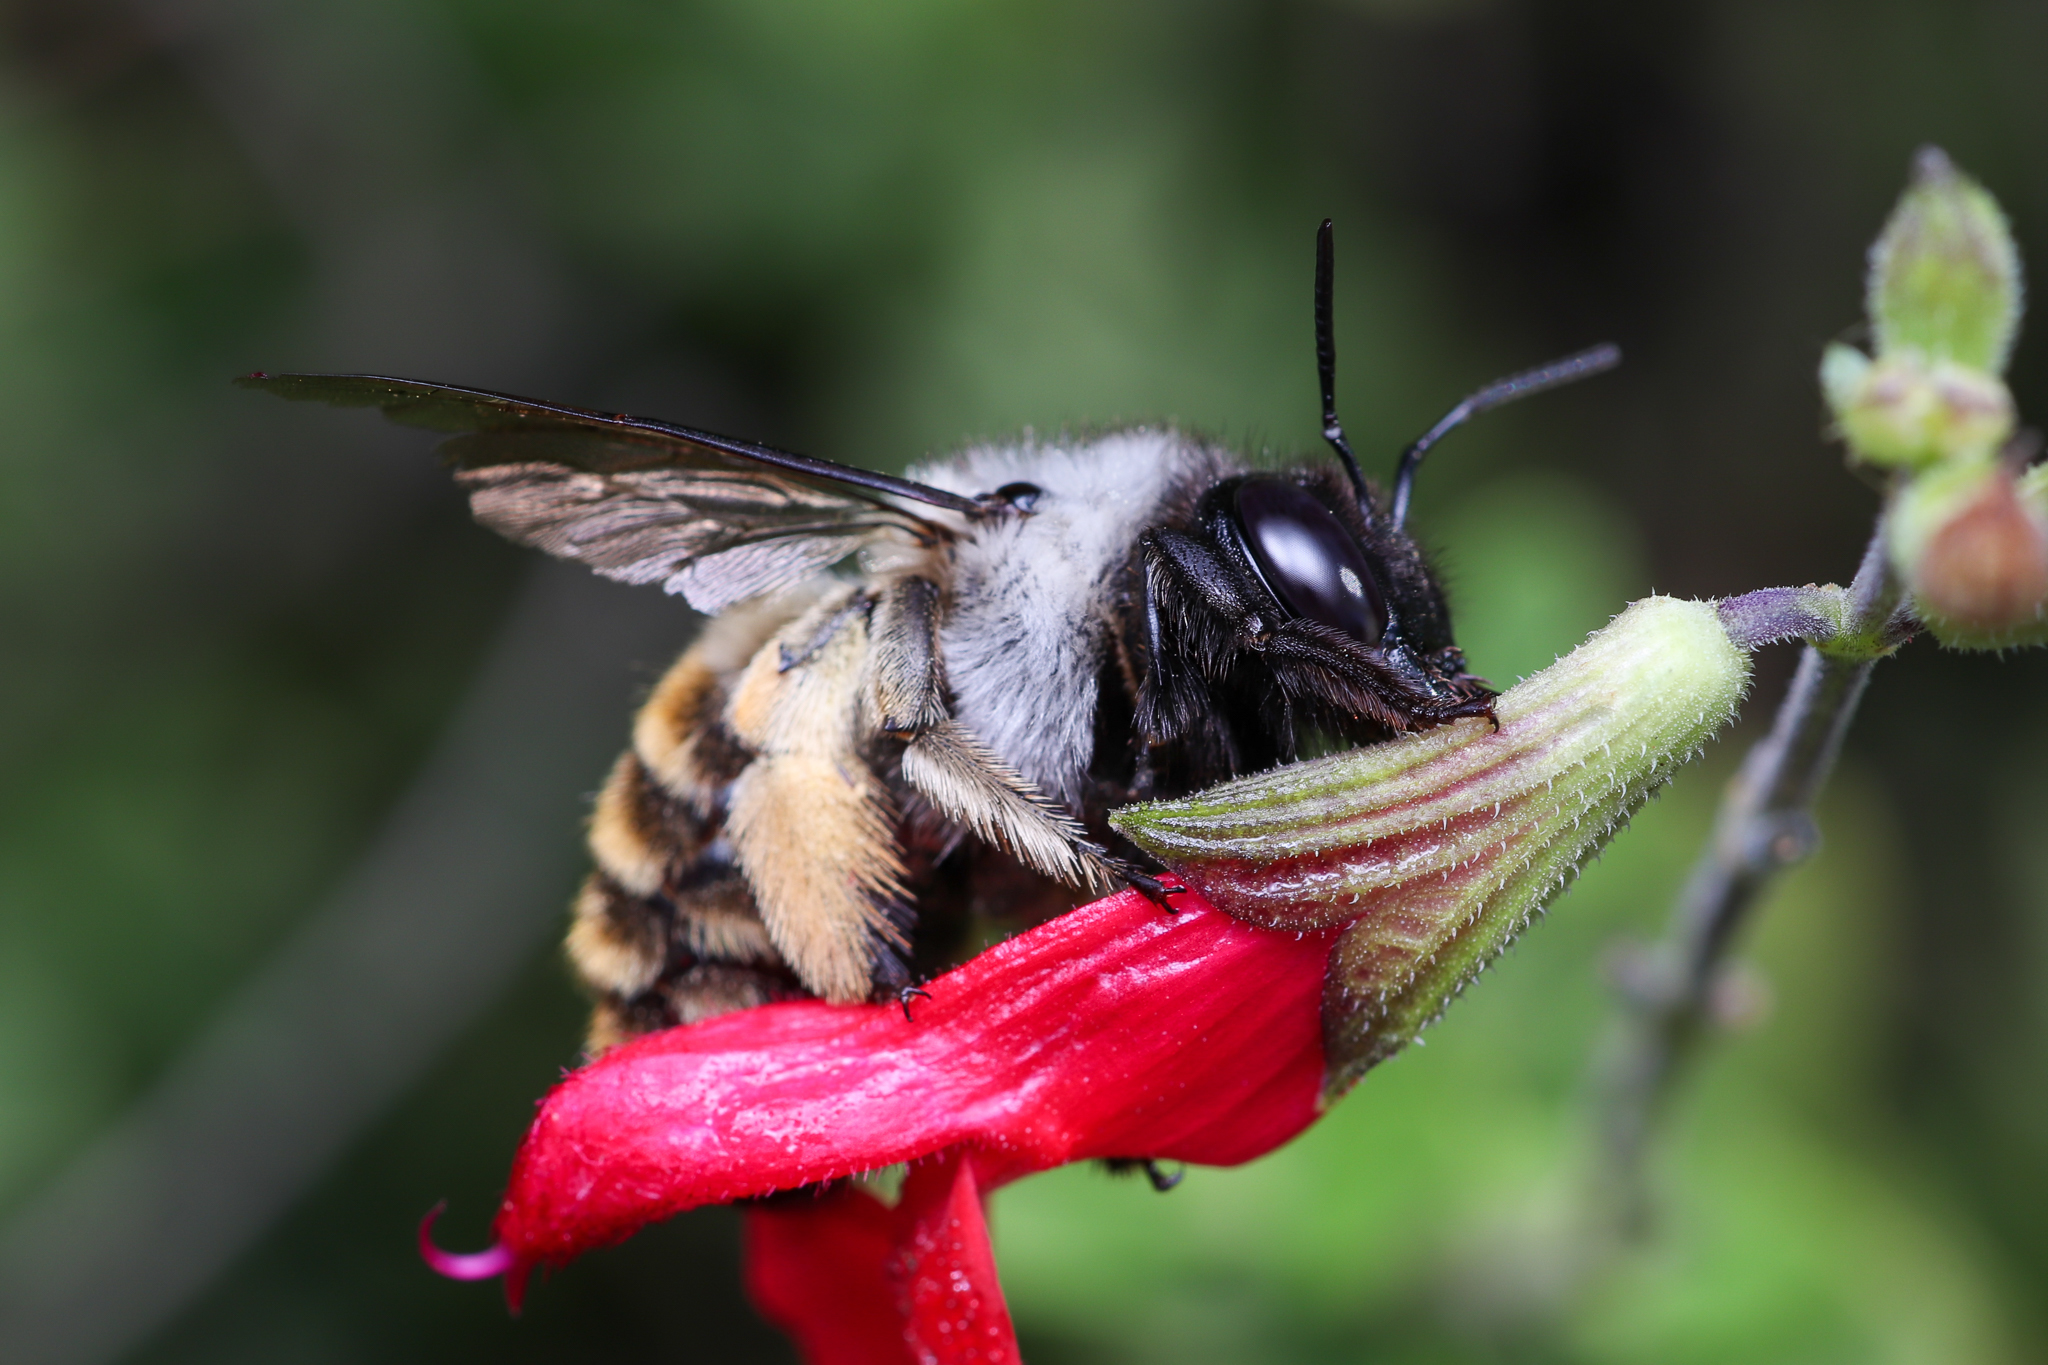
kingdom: Animalia
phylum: Arthropoda
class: Insecta
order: Hymenoptera
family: Apidae
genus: Xylocopa
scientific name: Xylocopa tabaniformis
